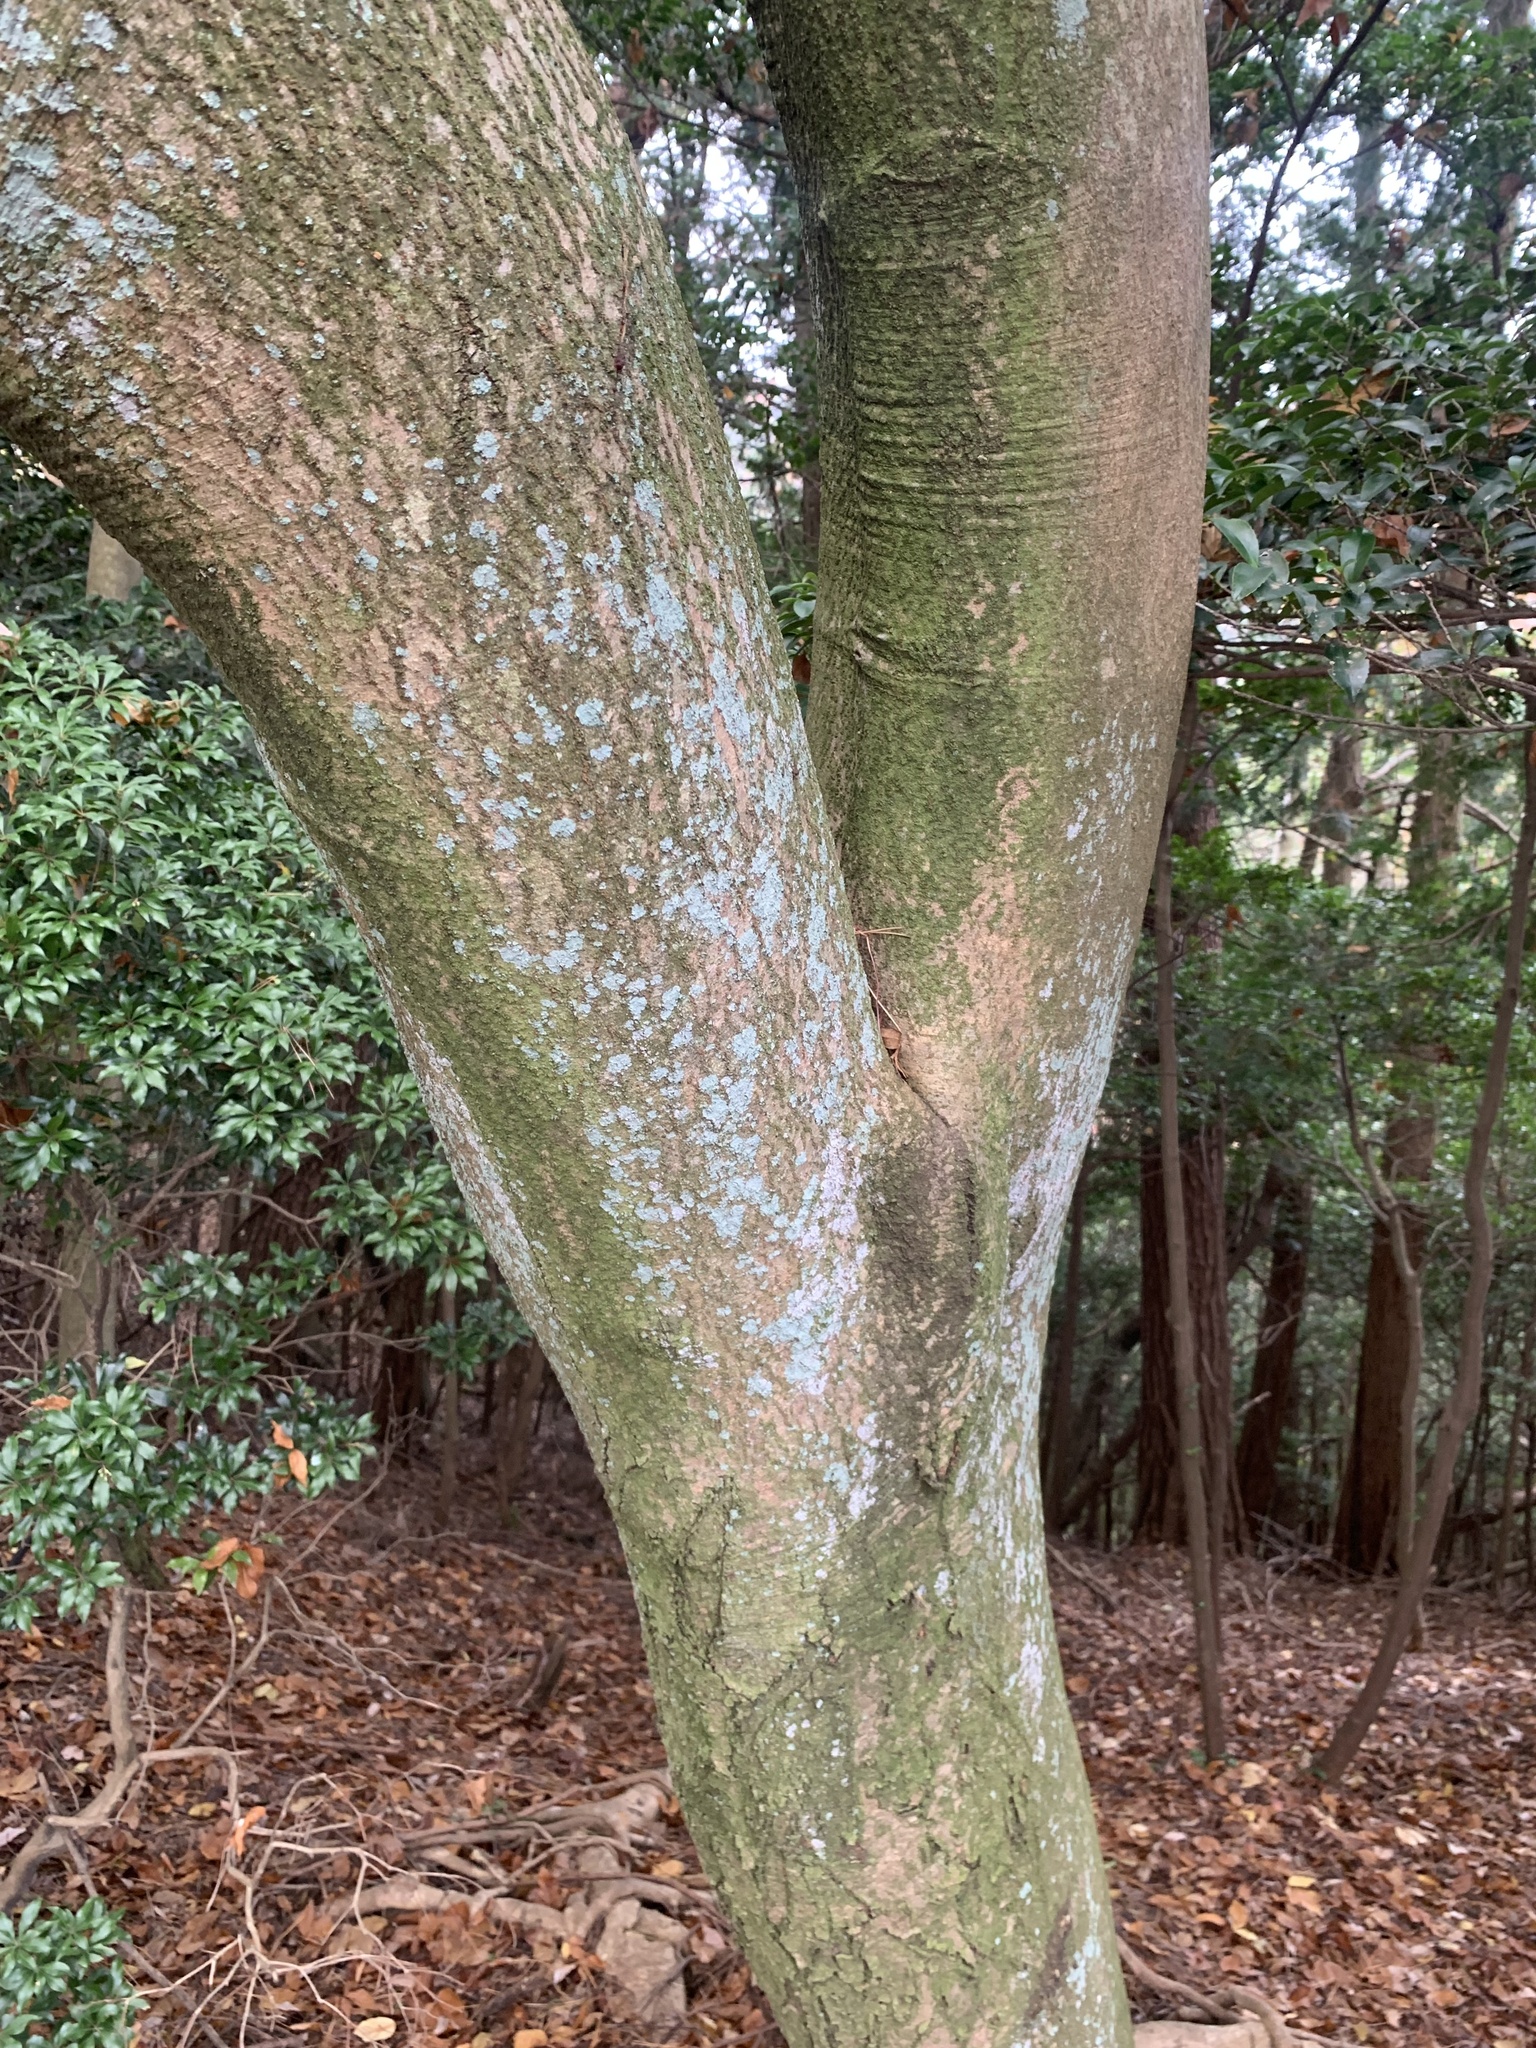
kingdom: Plantae
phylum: Tracheophyta
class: Magnoliopsida
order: Apiales
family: Araliaceae
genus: Gamblea
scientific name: Gamblea innovans
